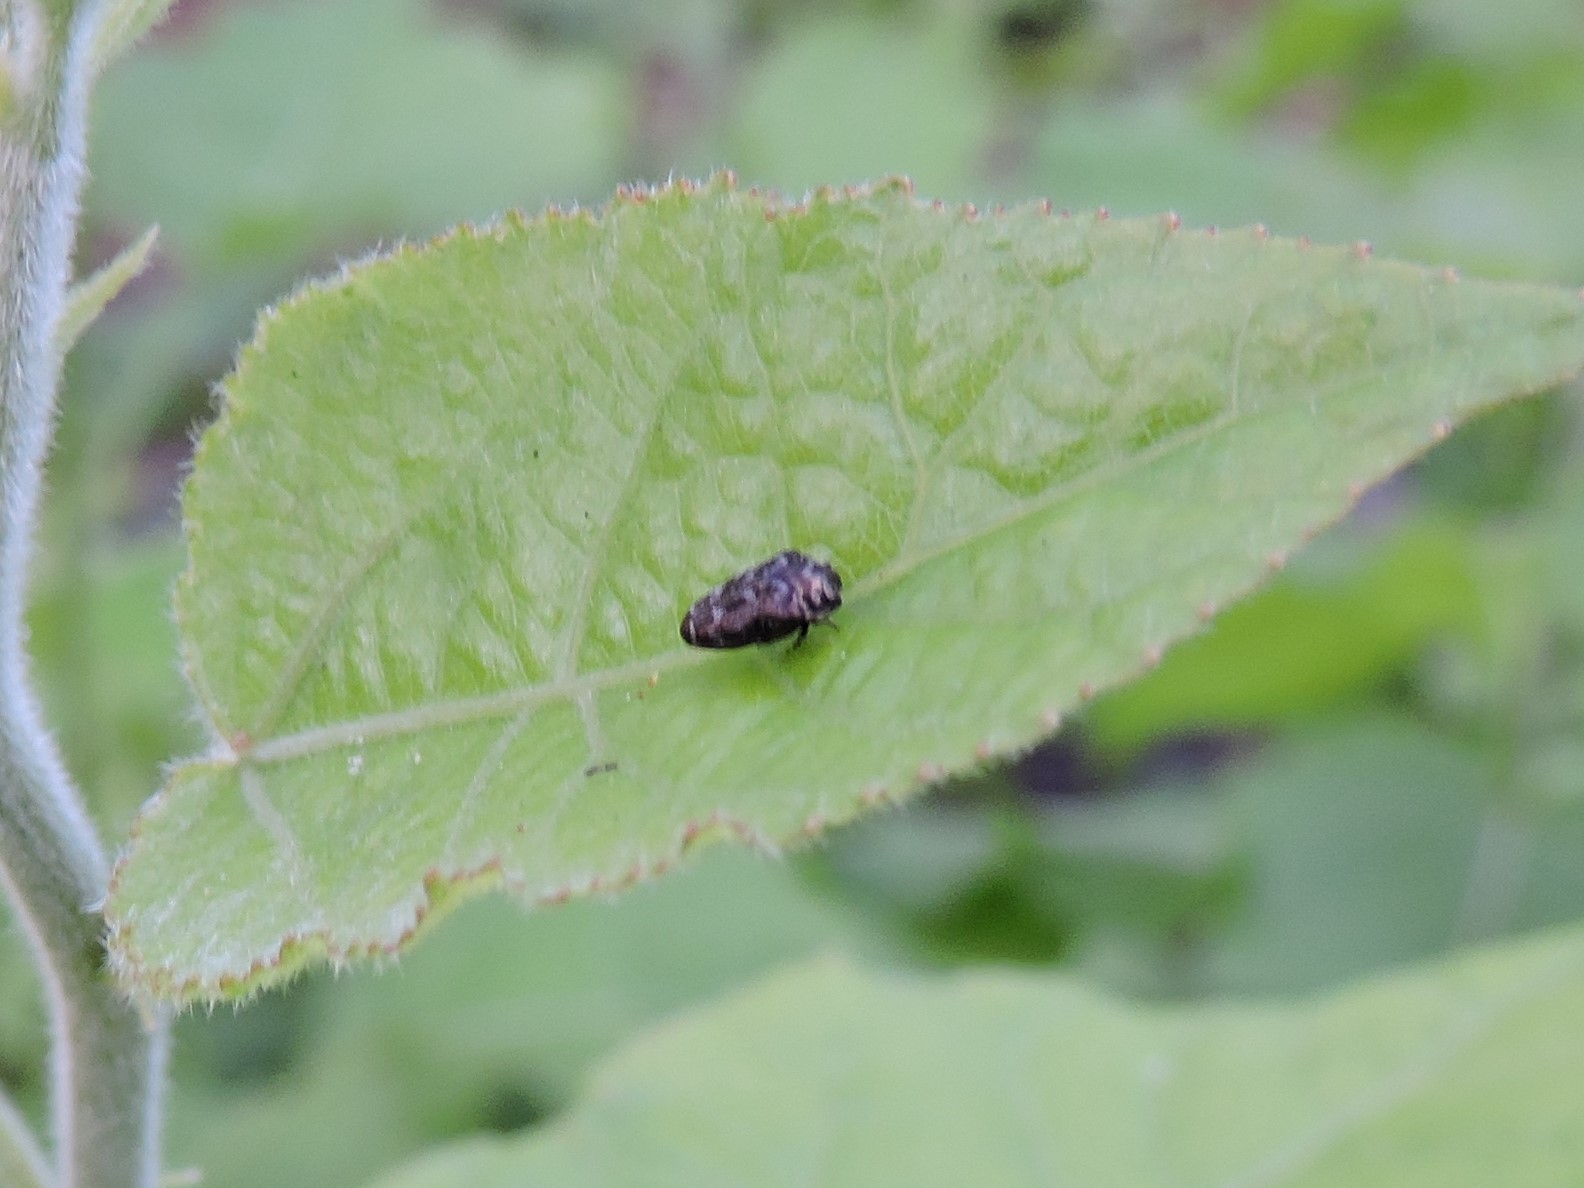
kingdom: Animalia
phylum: Arthropoda
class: Insecta
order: Coleoptera
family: Buprestidae
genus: Trachys
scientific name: Trachys minutus
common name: Metallic wood-boring beetle
